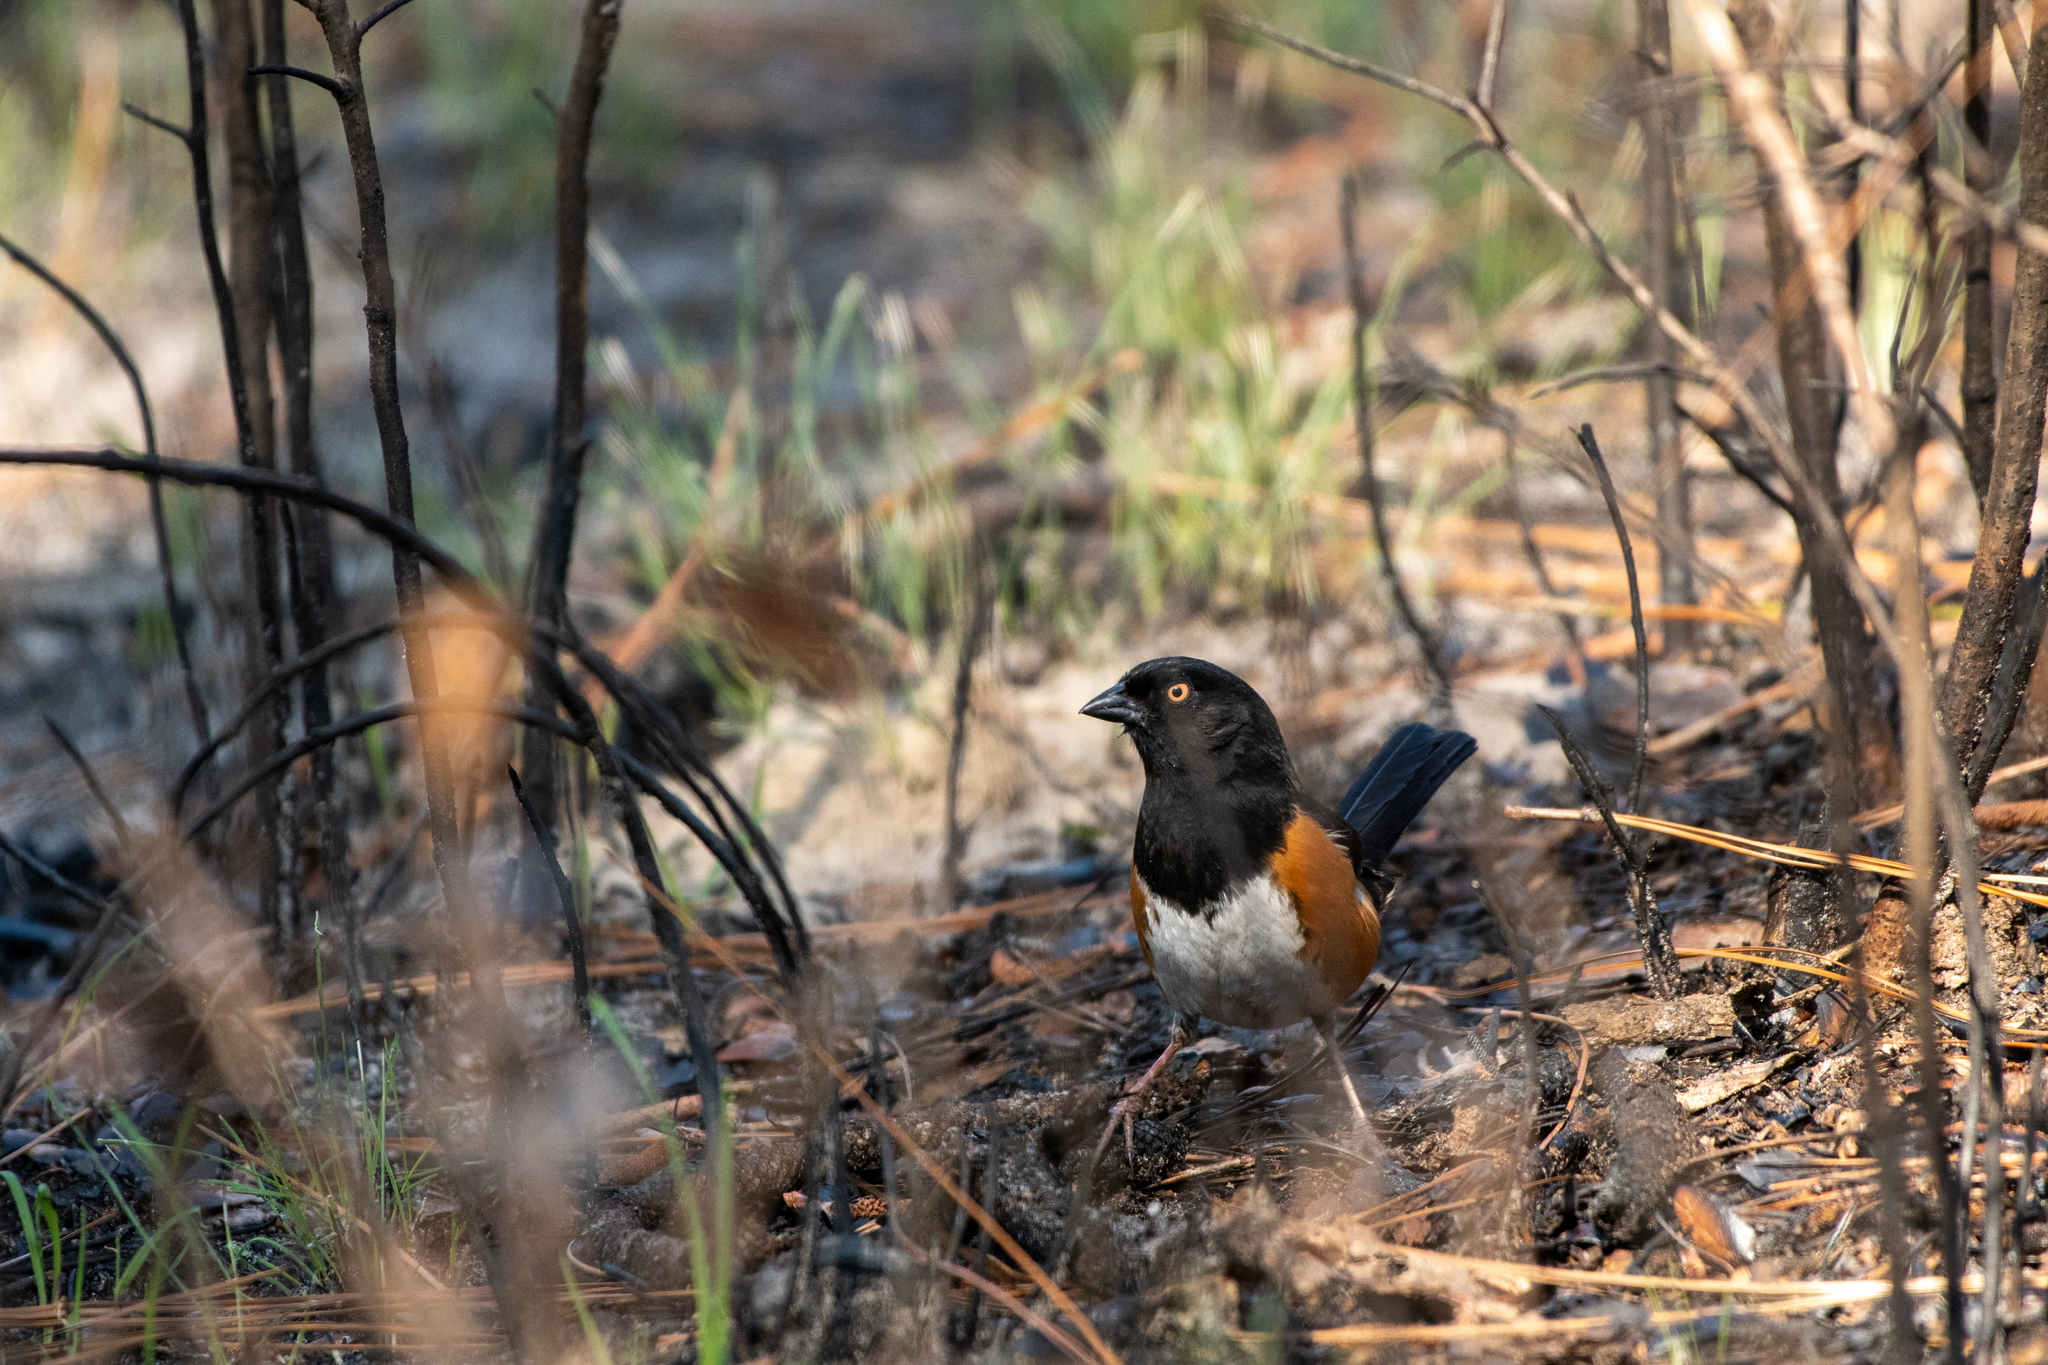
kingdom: Animalia
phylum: Chordata
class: Aves
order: Passeriformes
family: Passerellidae
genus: Pipilo
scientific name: Pipilo erythrophthalmus
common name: Eastern towhee
